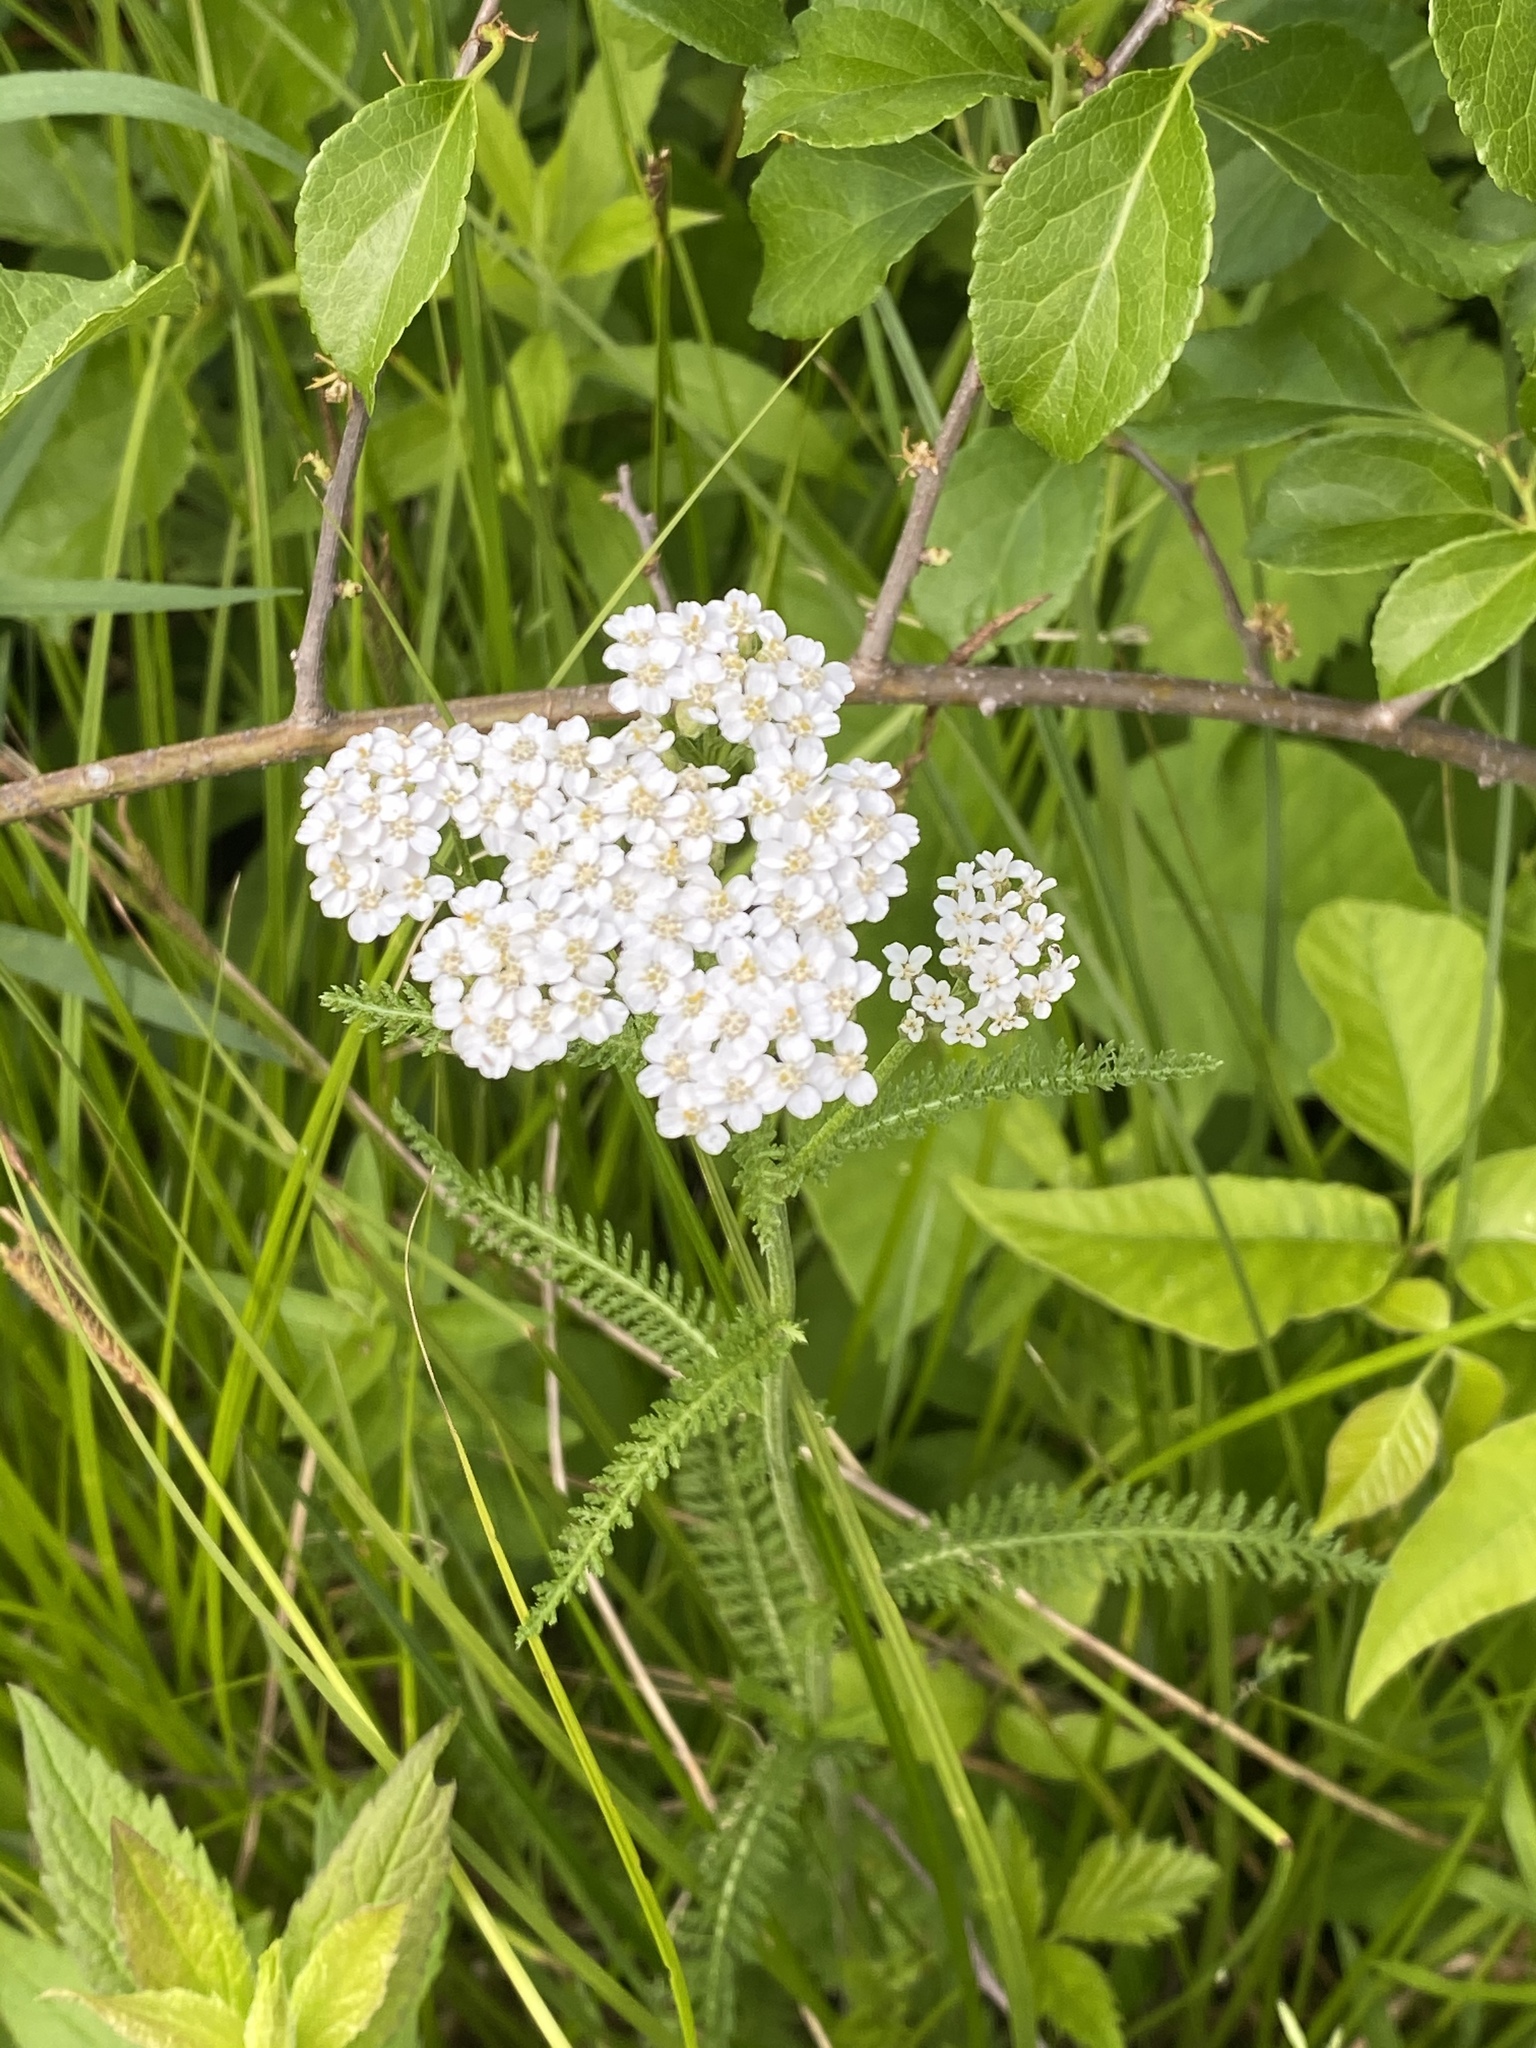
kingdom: Plantae
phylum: Tracheophyta
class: Magnoliopsida
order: Asterales
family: Asteraceae
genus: Achillea
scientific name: Achillea millefolium
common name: Yarrow
